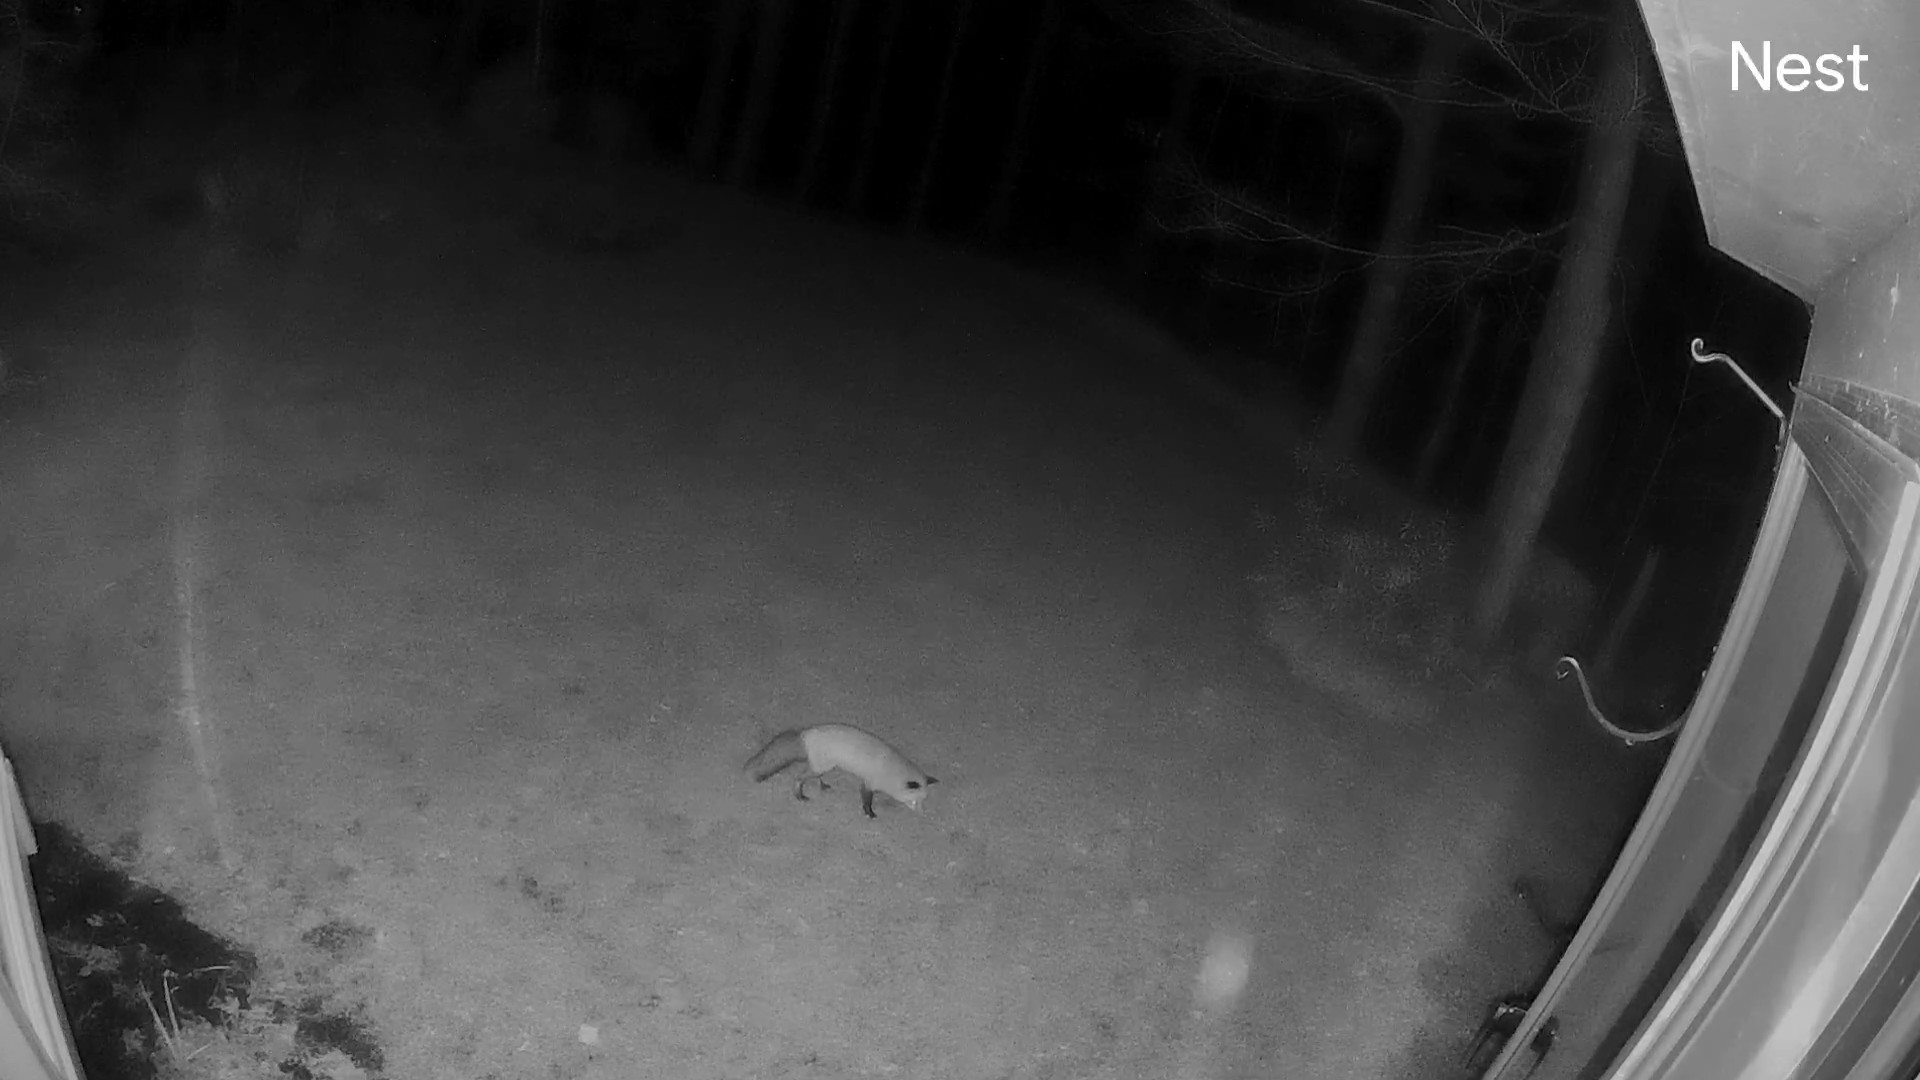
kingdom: Animalia
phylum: Chordata
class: Mammalia
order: Carnivora
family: Canidae
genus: Vulpes
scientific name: Vulpes vulpes
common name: Red fox
